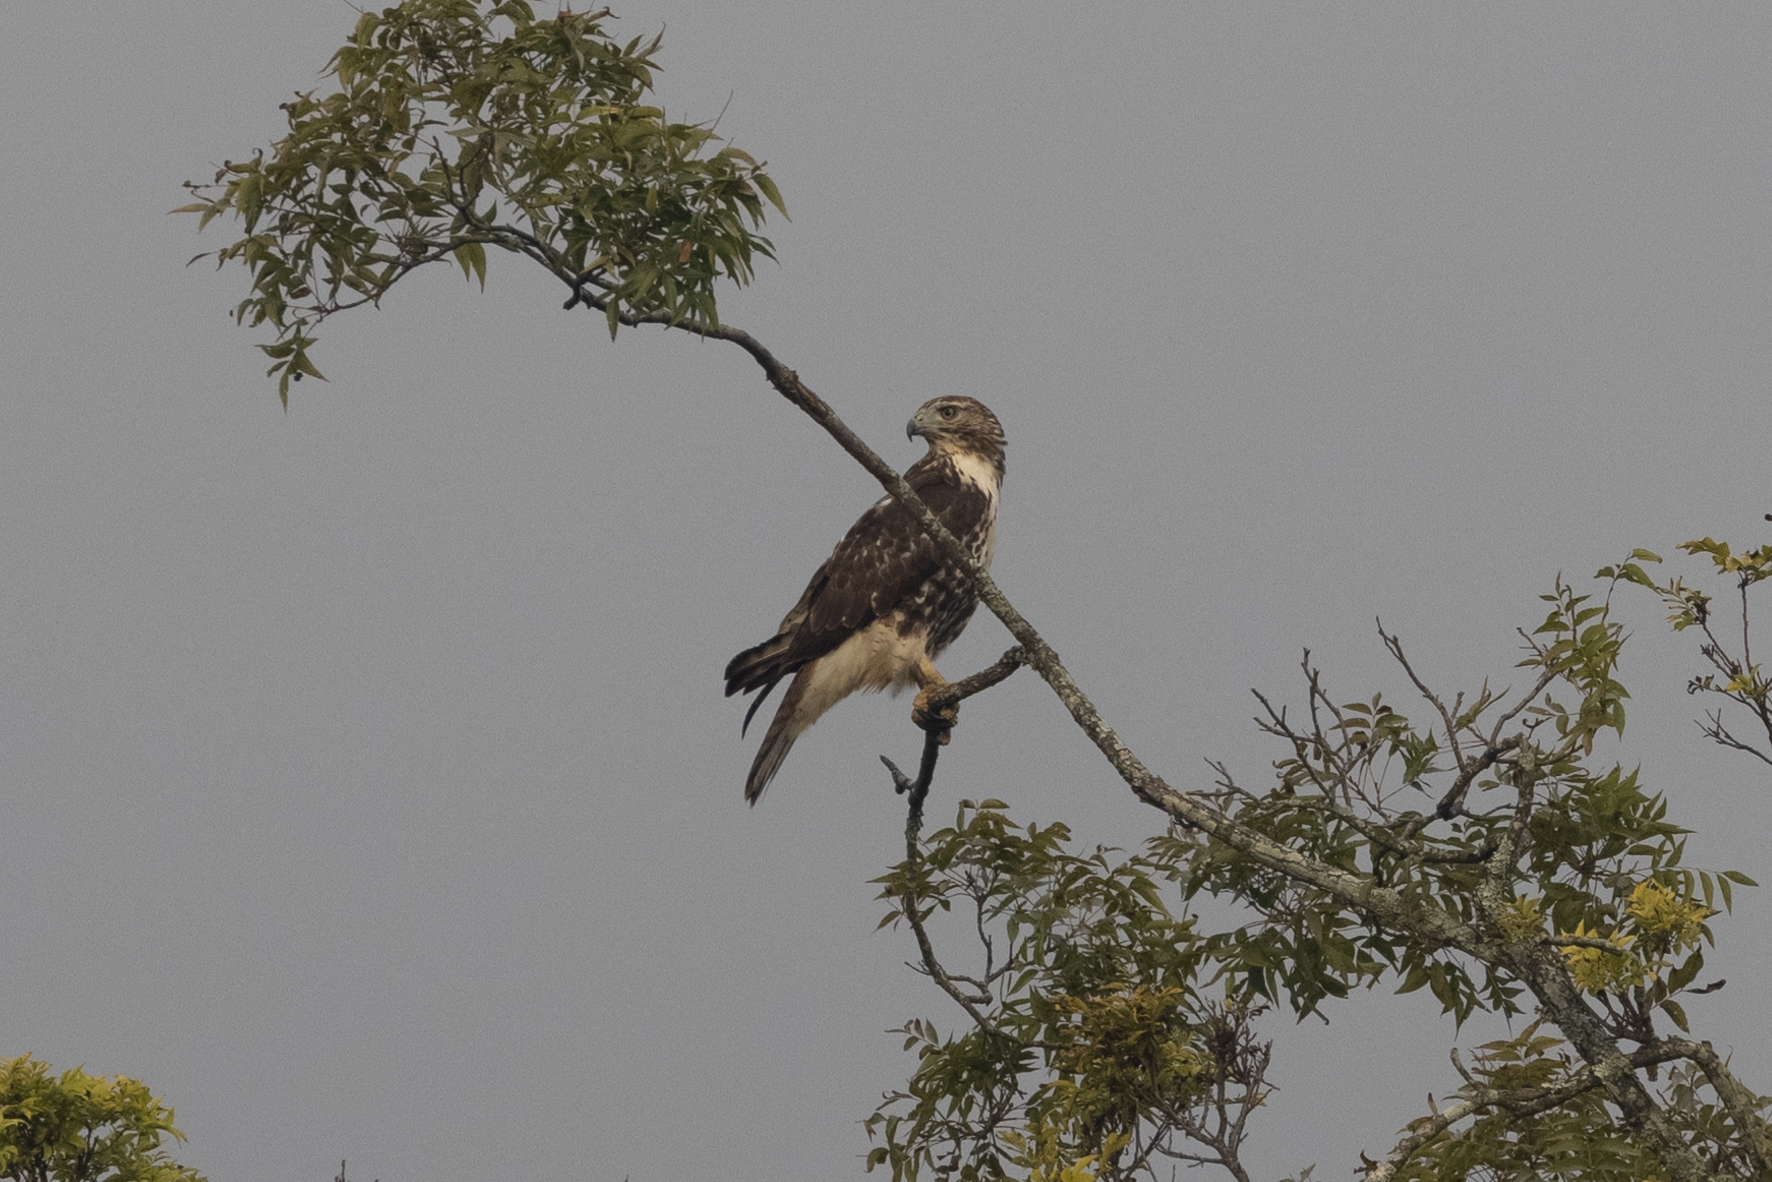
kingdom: Animalia
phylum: Chordata
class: Aves
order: Accipitriformes
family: Accipitridae
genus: Buteo
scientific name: Buteo jamaicensis
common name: Red-tailed hawk
